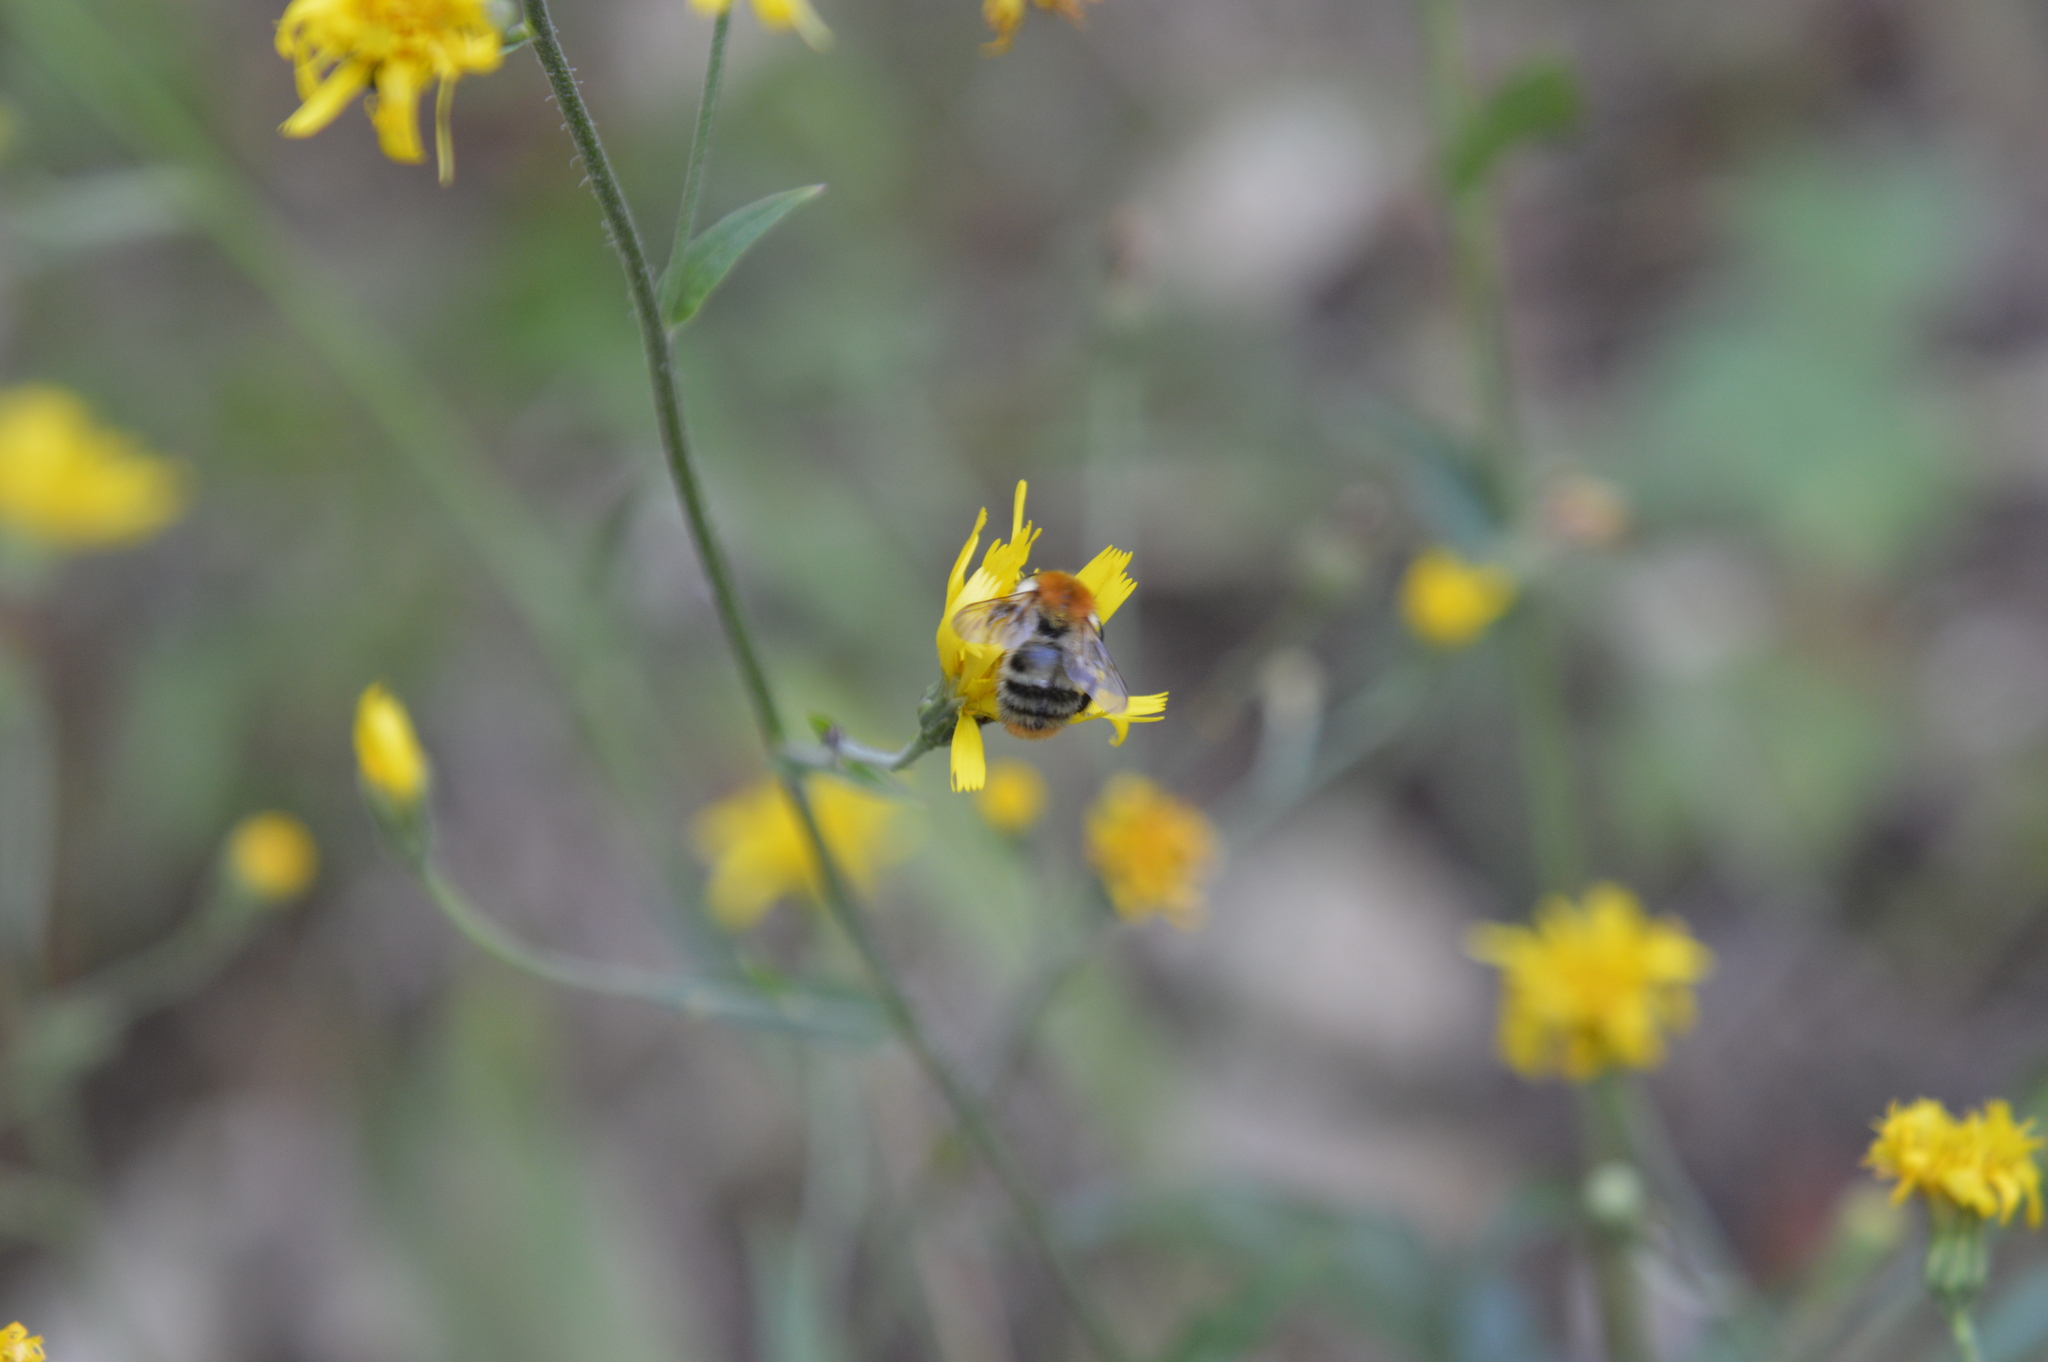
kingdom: Animalia
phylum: Arthropoda
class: Insecta
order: Hymenoptera
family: Apidae
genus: Bombus
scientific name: Bombus pascuorum
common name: Common carder bee
